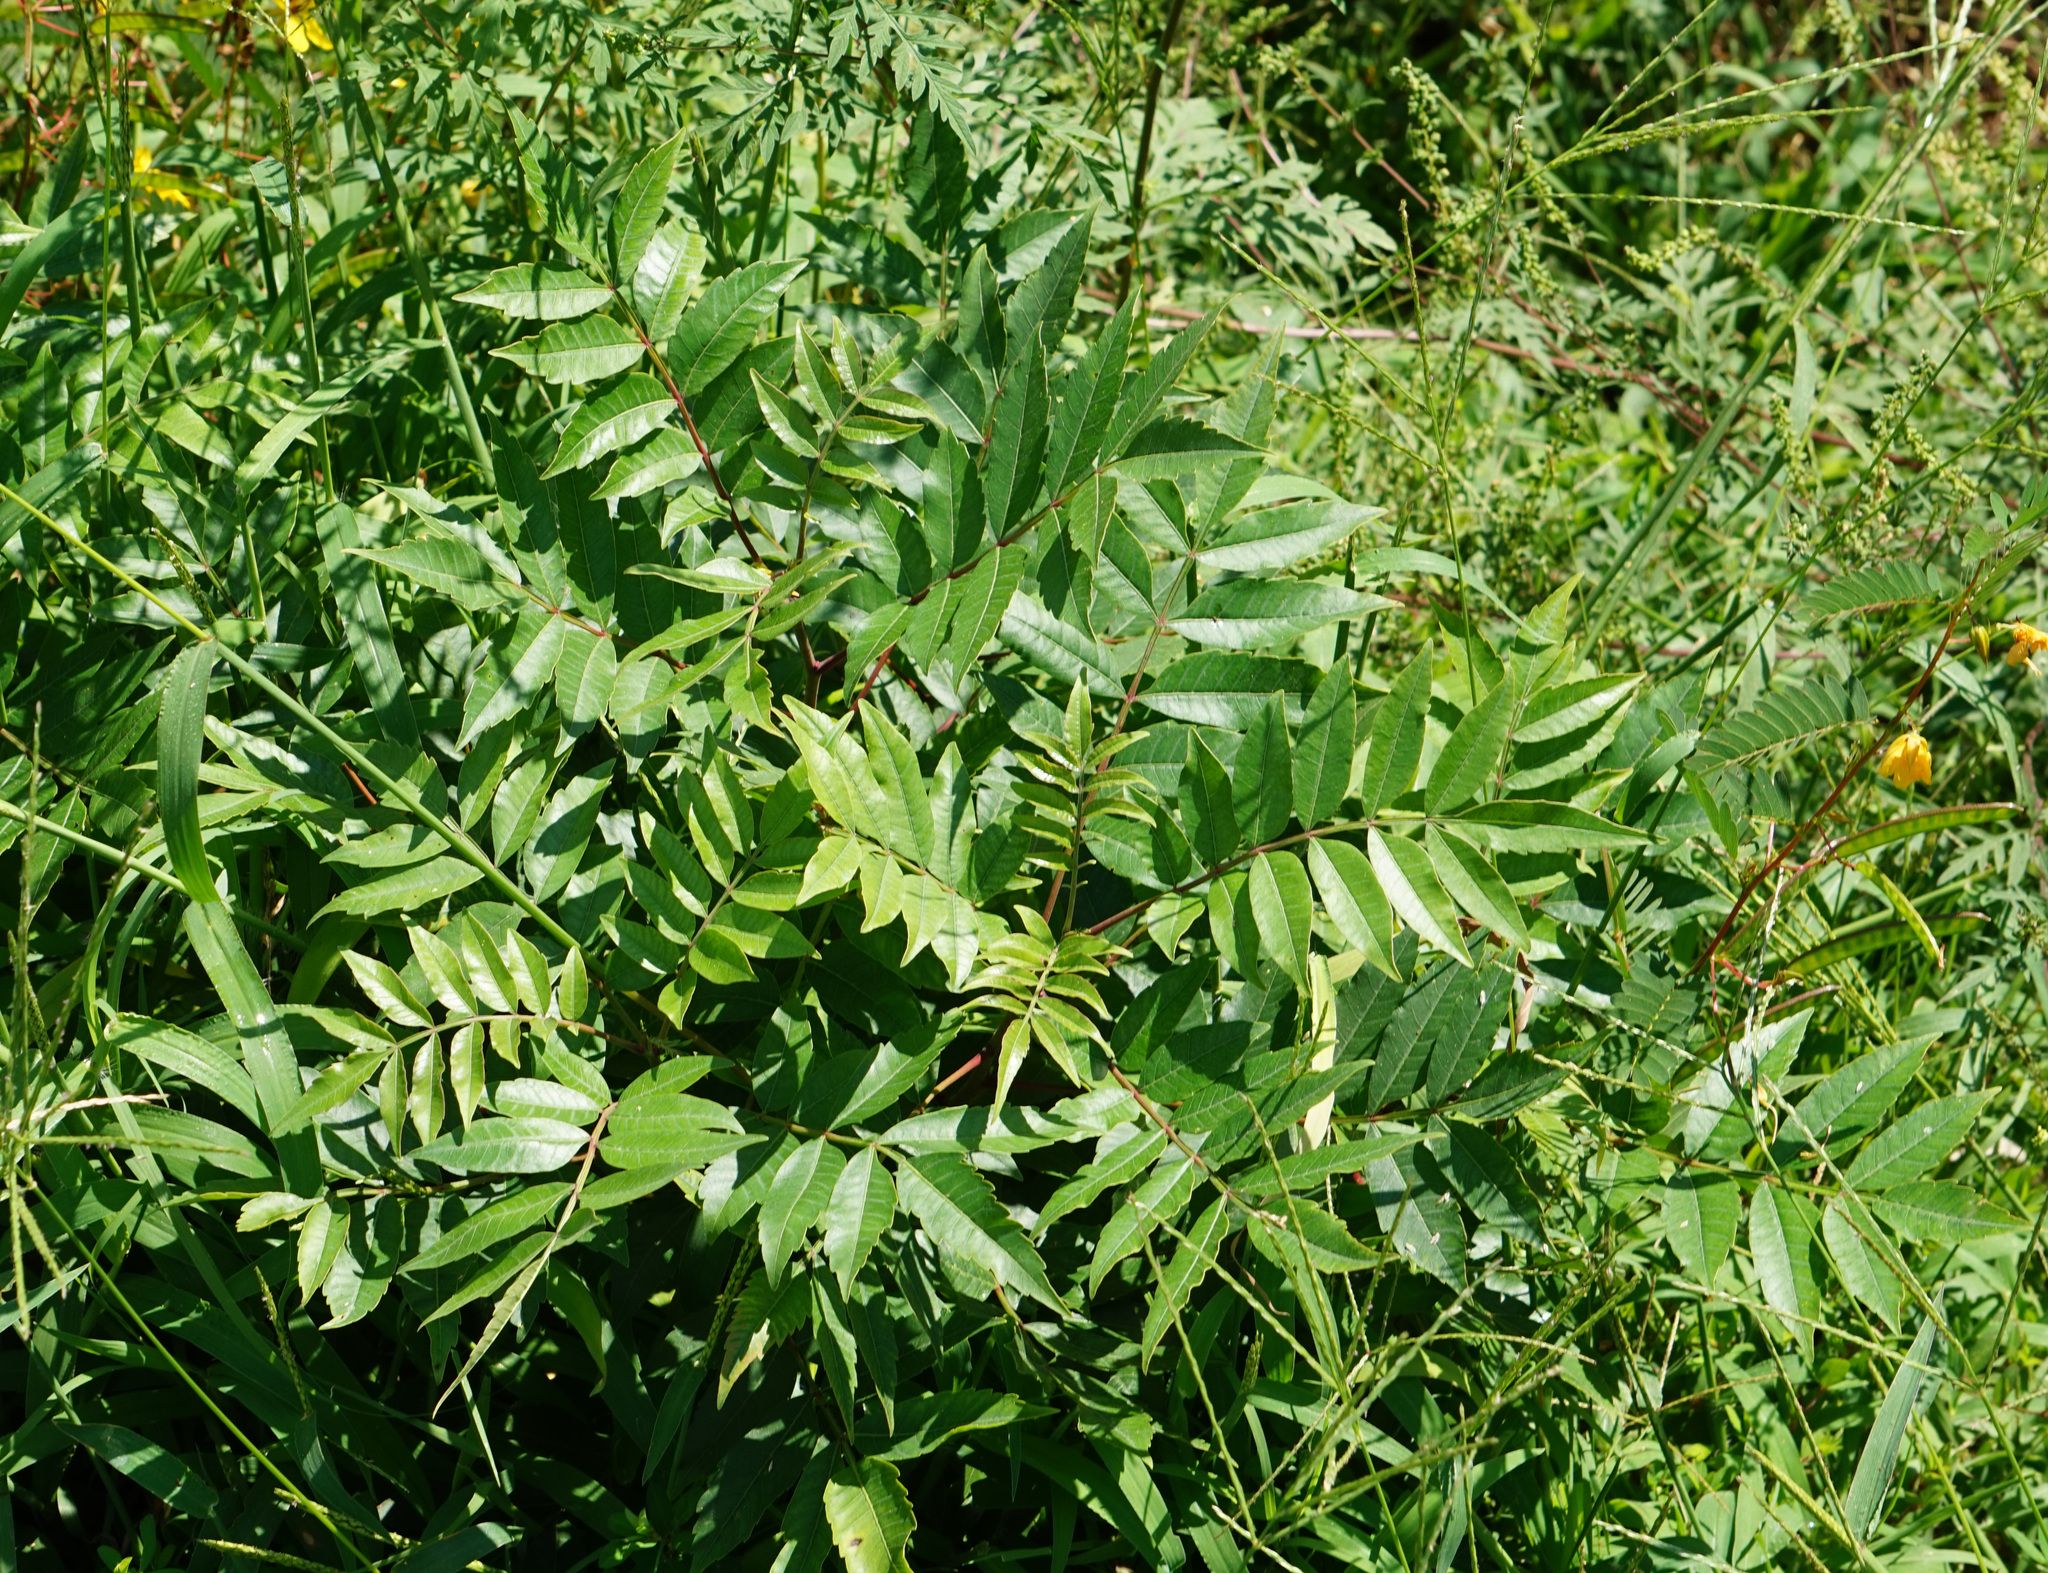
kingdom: Plantae
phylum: Tracheophyta
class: Magnoliopsida
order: Sapindales
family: Anacardiaceae
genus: Rhus
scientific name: Rhus copallina
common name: Shining sumac
